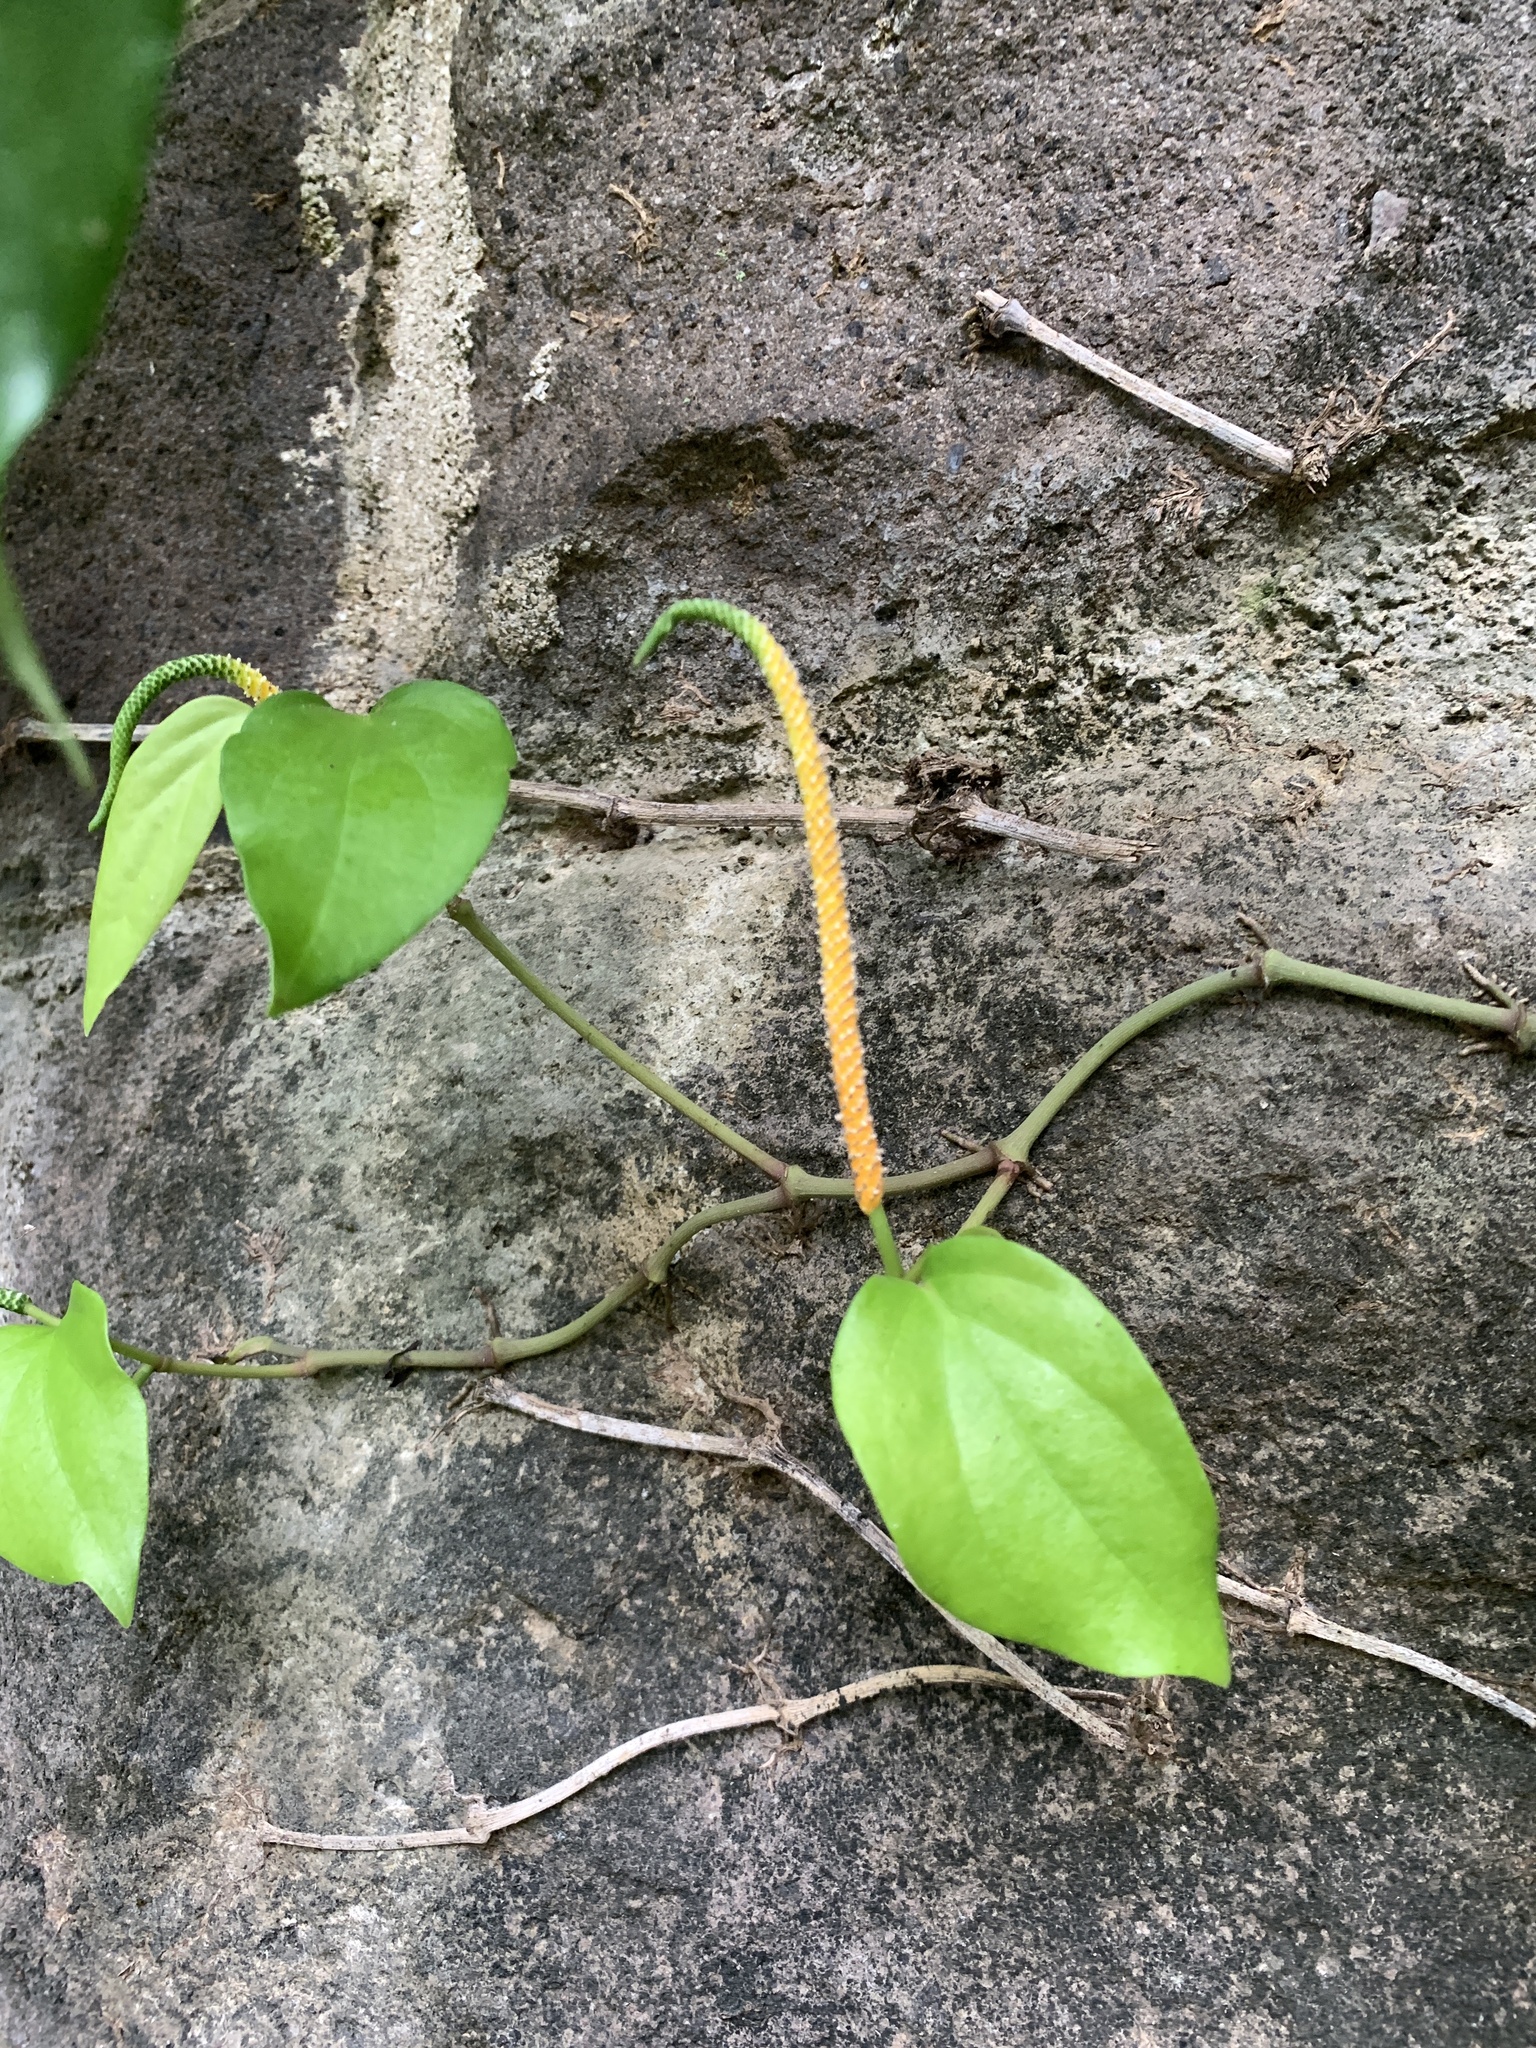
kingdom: Plantae
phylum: Tracheophyta
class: Magnoliopsida
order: Piperales
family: Piperaceae
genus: Piper
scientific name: Piper kadsura
